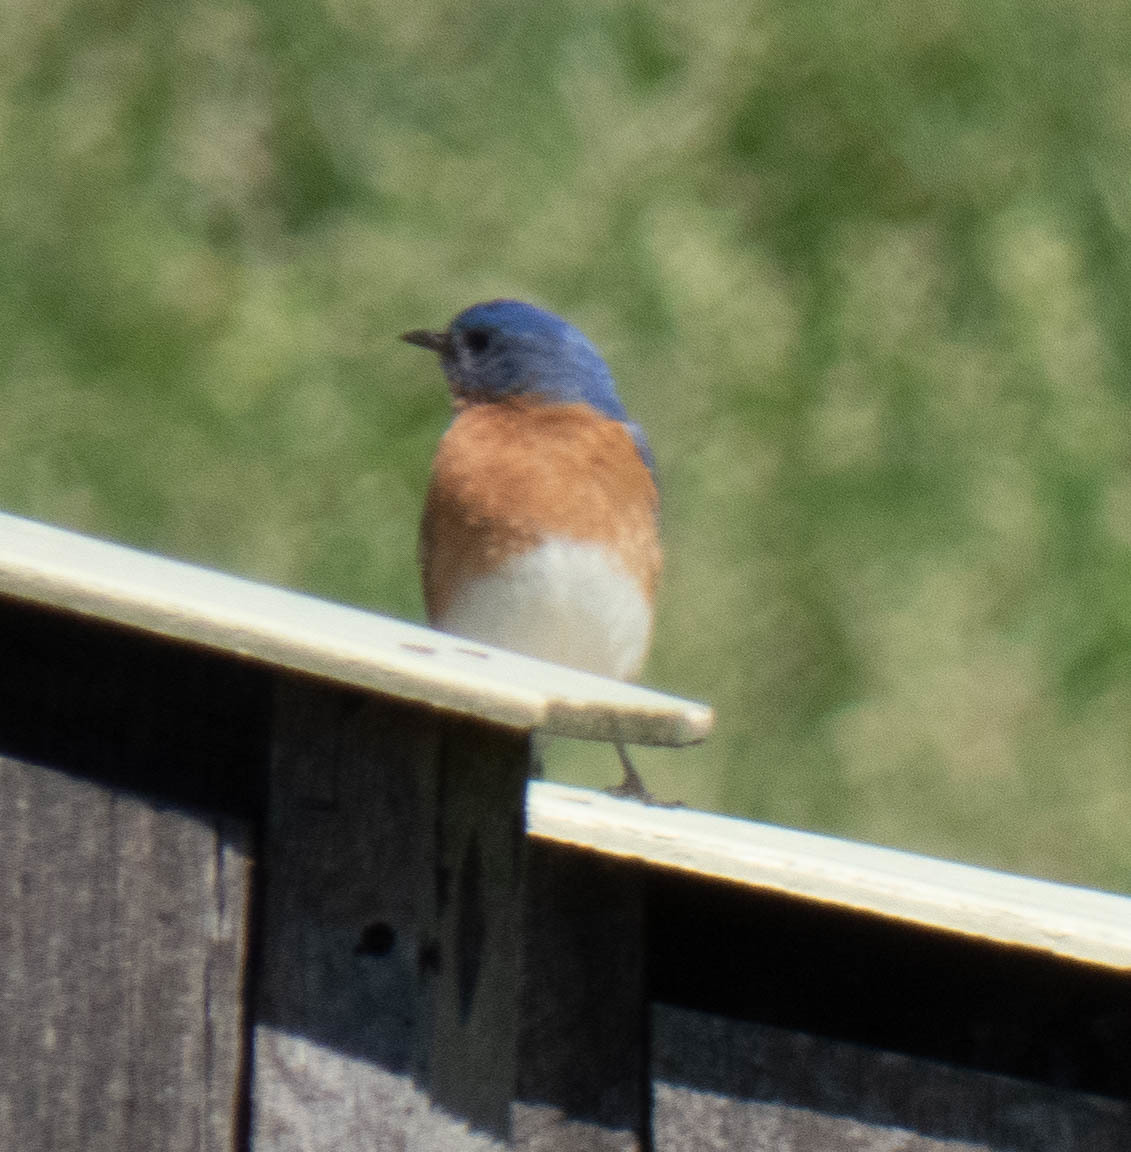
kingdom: Animalia
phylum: Chordata
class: Aves
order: Passeriformes
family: Turdidae
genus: Sialia
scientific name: Sialia sialis
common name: Eastern bluebird
